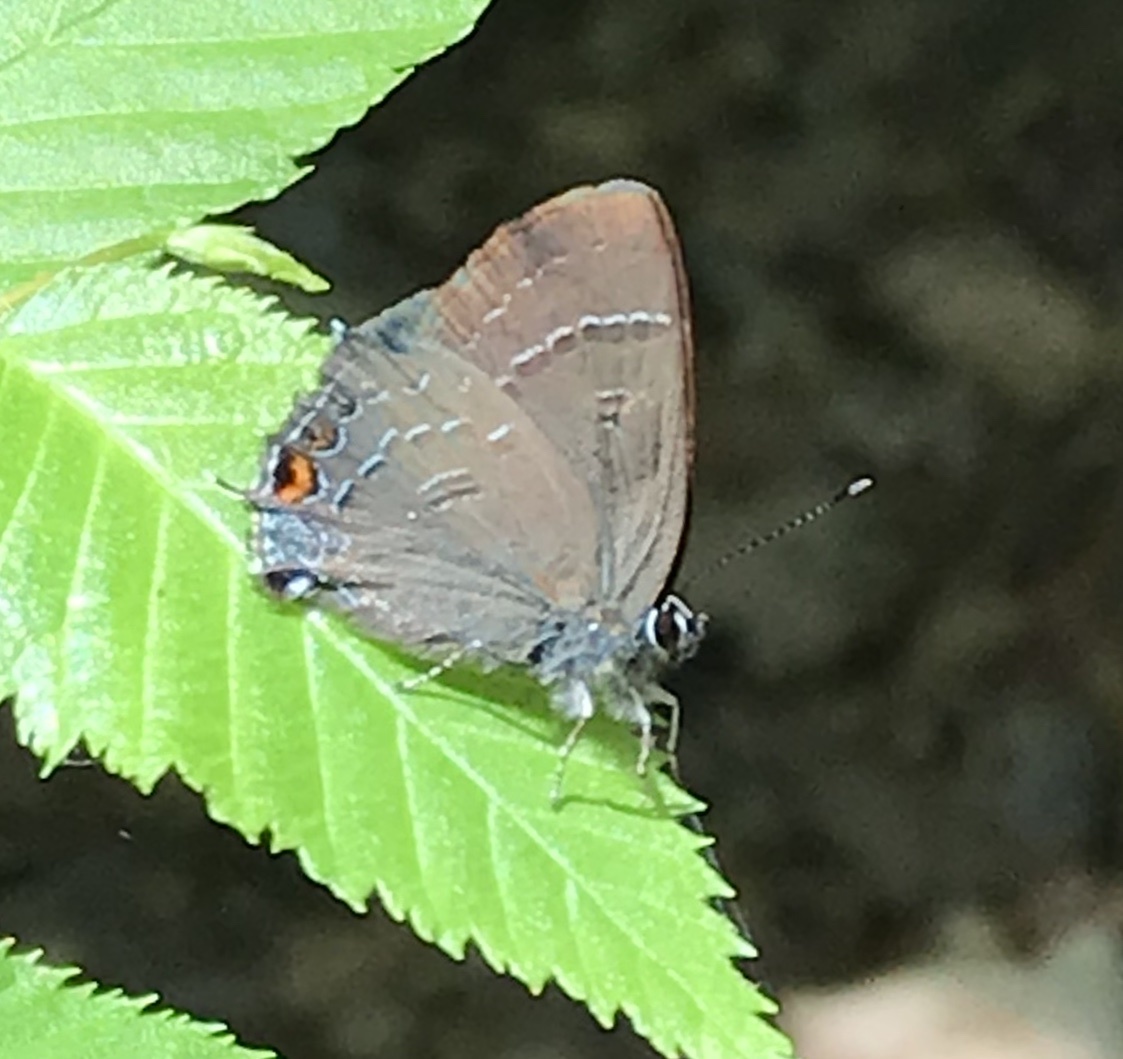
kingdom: Animalia
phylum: Arthropoda
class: Insecta
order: Lepidoptera
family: Lycaenidae
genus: Satyrium
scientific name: Satyrium calanus
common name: Banded hairstreak
